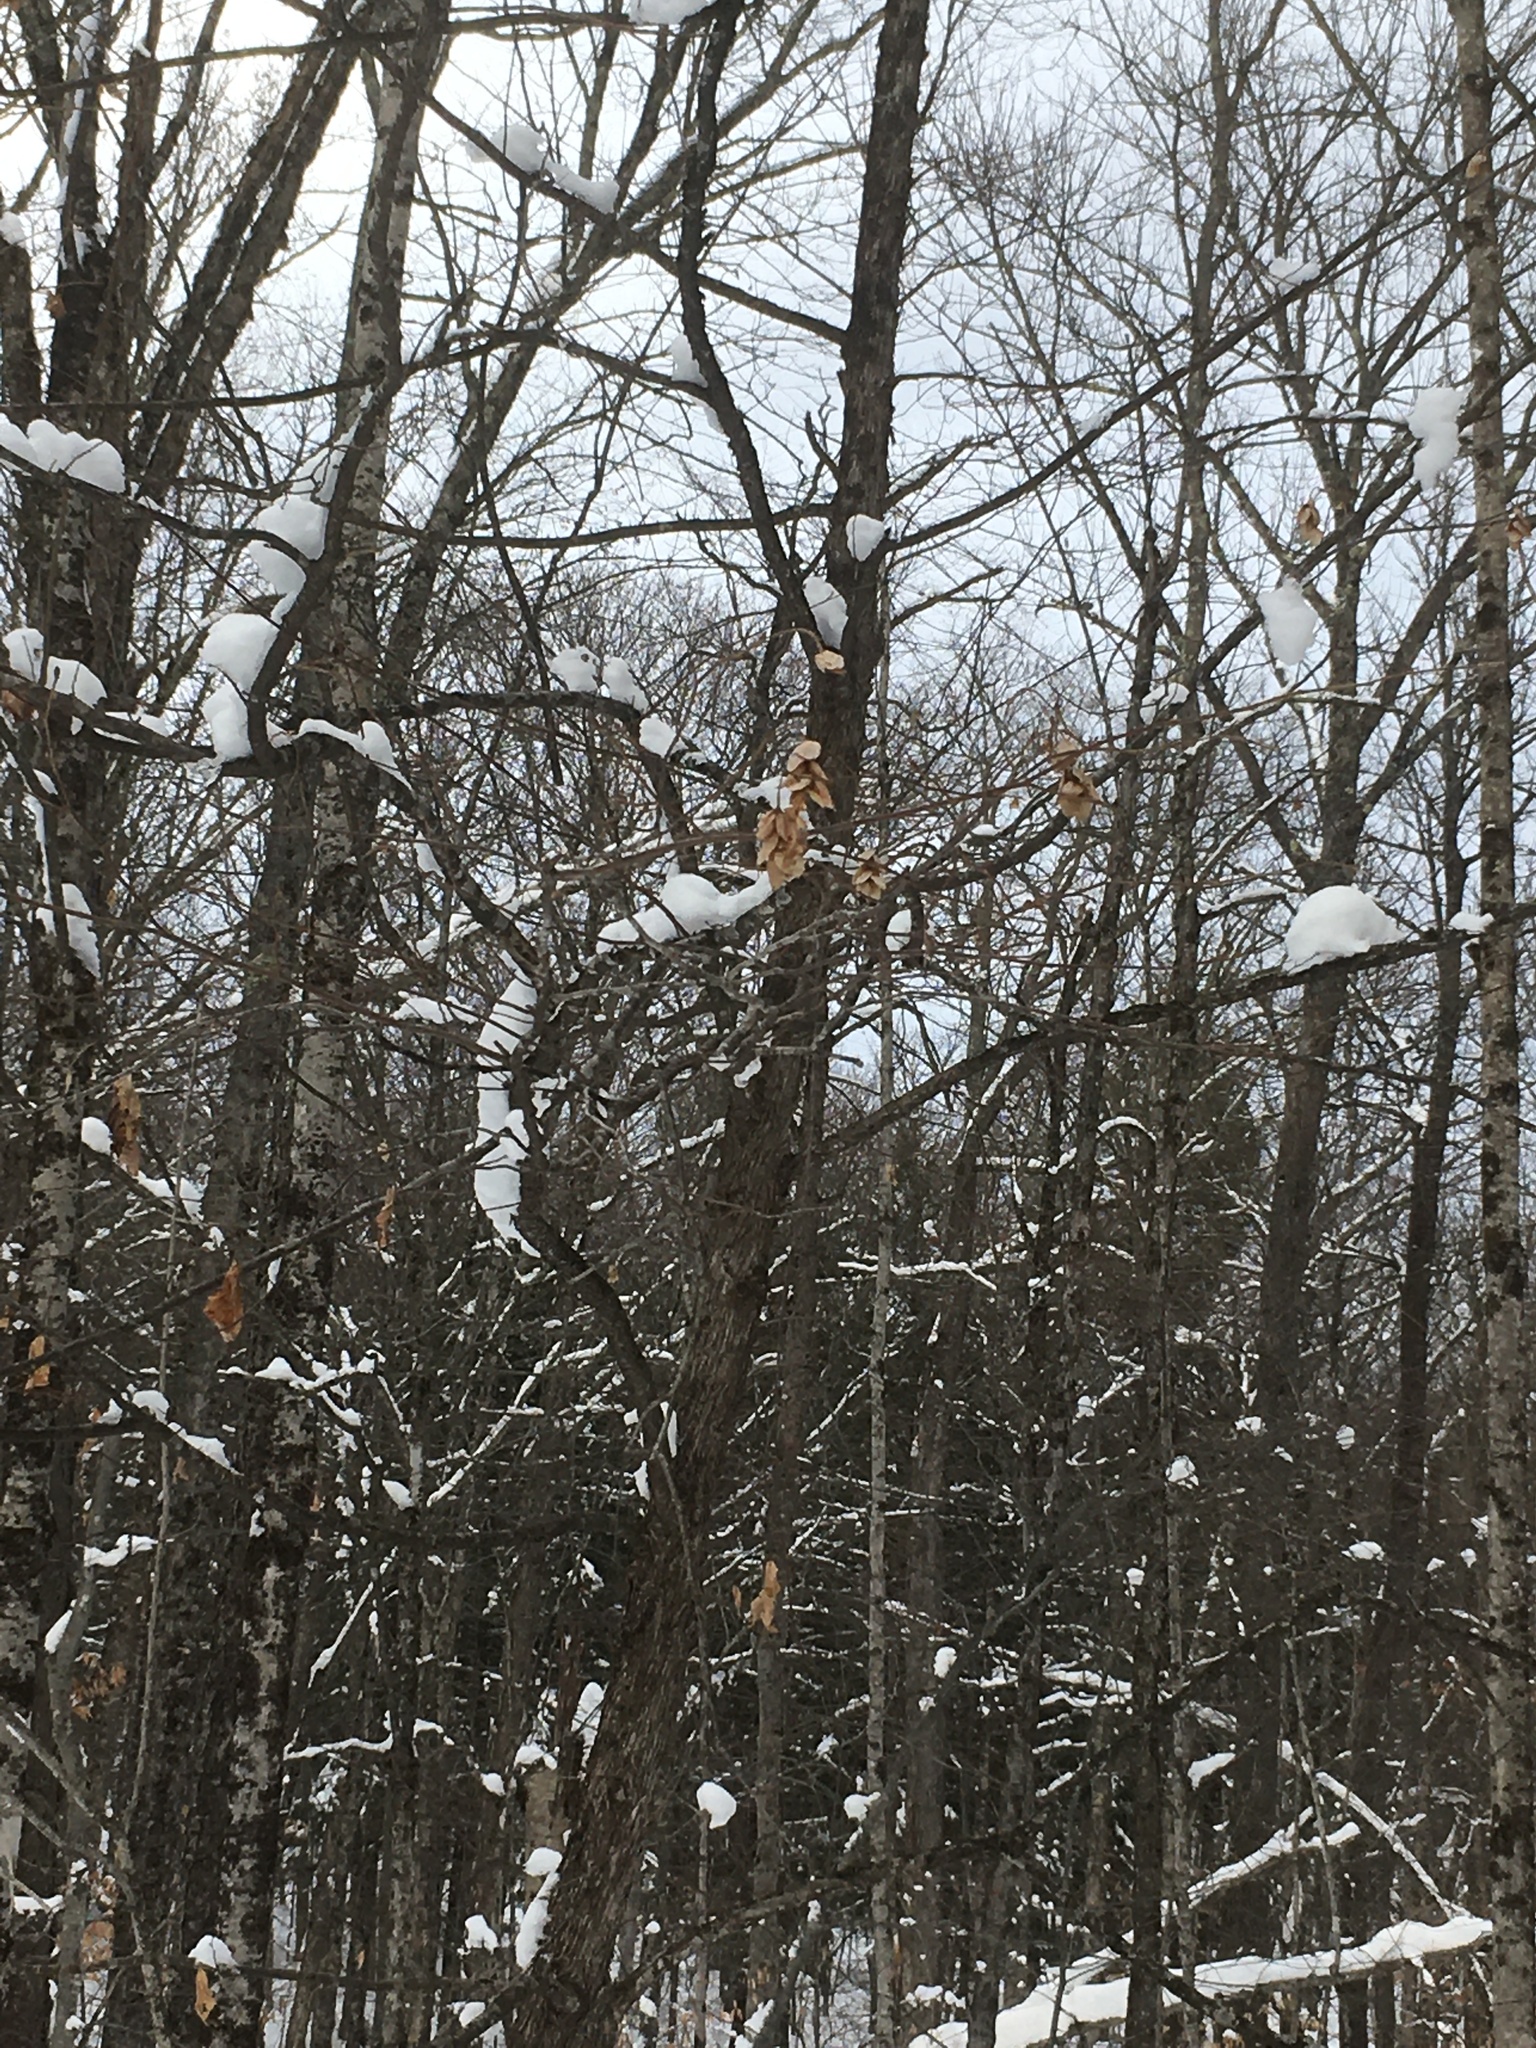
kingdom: Plantae
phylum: Tracheophyta
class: Magnoliopsida
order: Fagales
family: Betulaceae
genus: Ostrya
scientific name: Ostrya virginiana
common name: Ironwood
